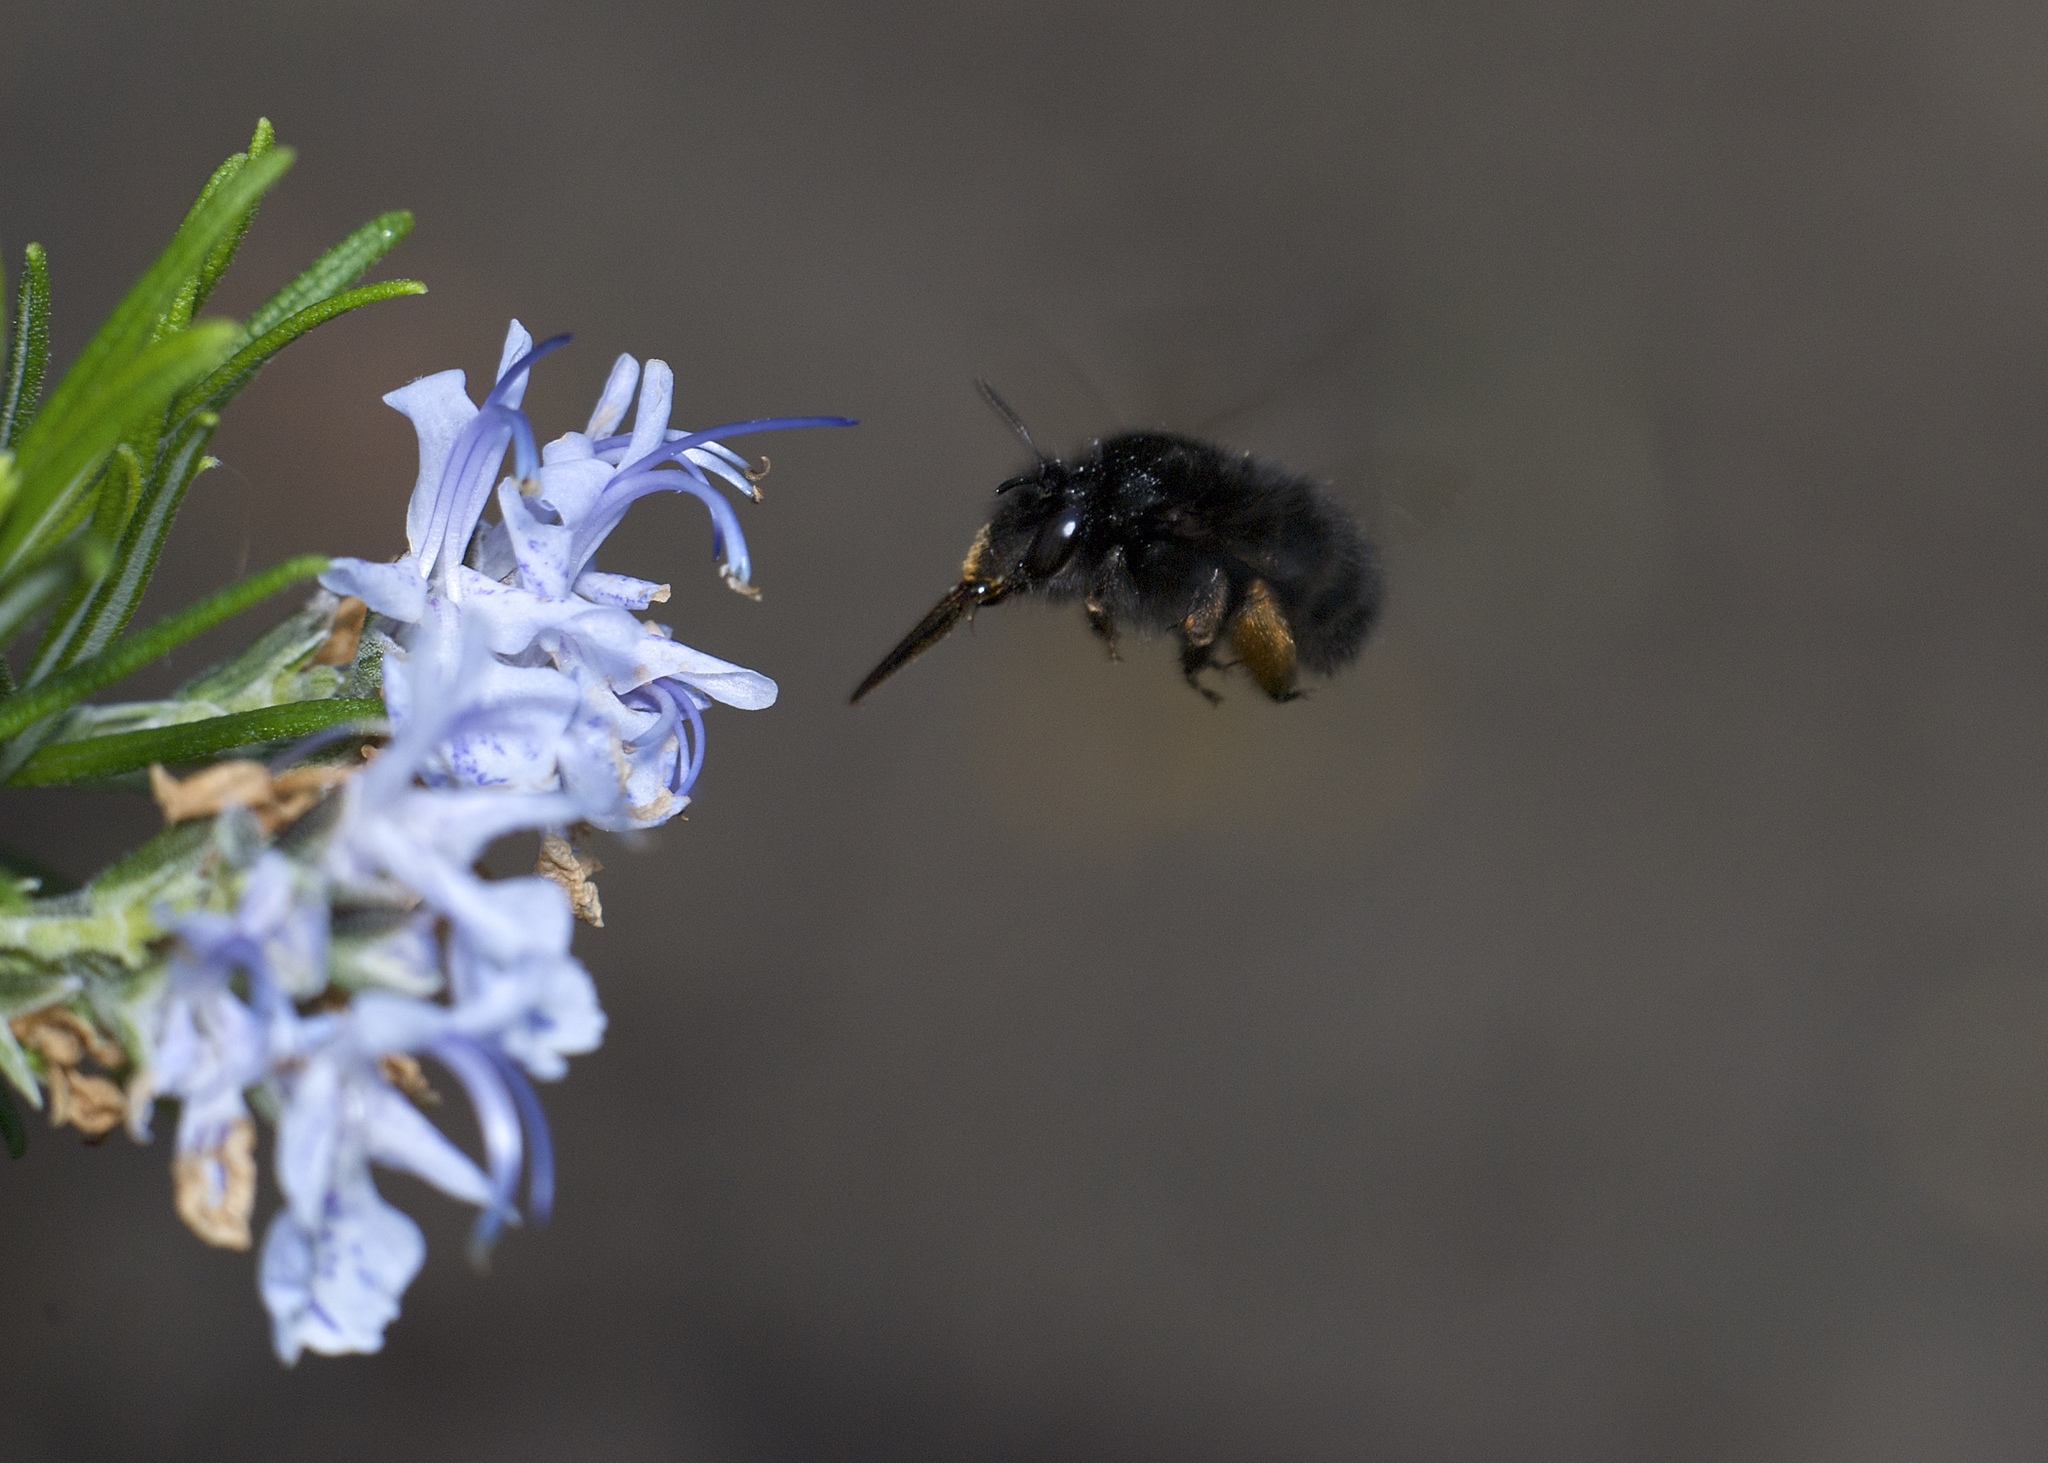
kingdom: Animalia
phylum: Arthropoda
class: Insecta
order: Hymenoptera
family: Apidae
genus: Anthophora
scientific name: Anthophora plumipes
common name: Hairy-footed flower bee
